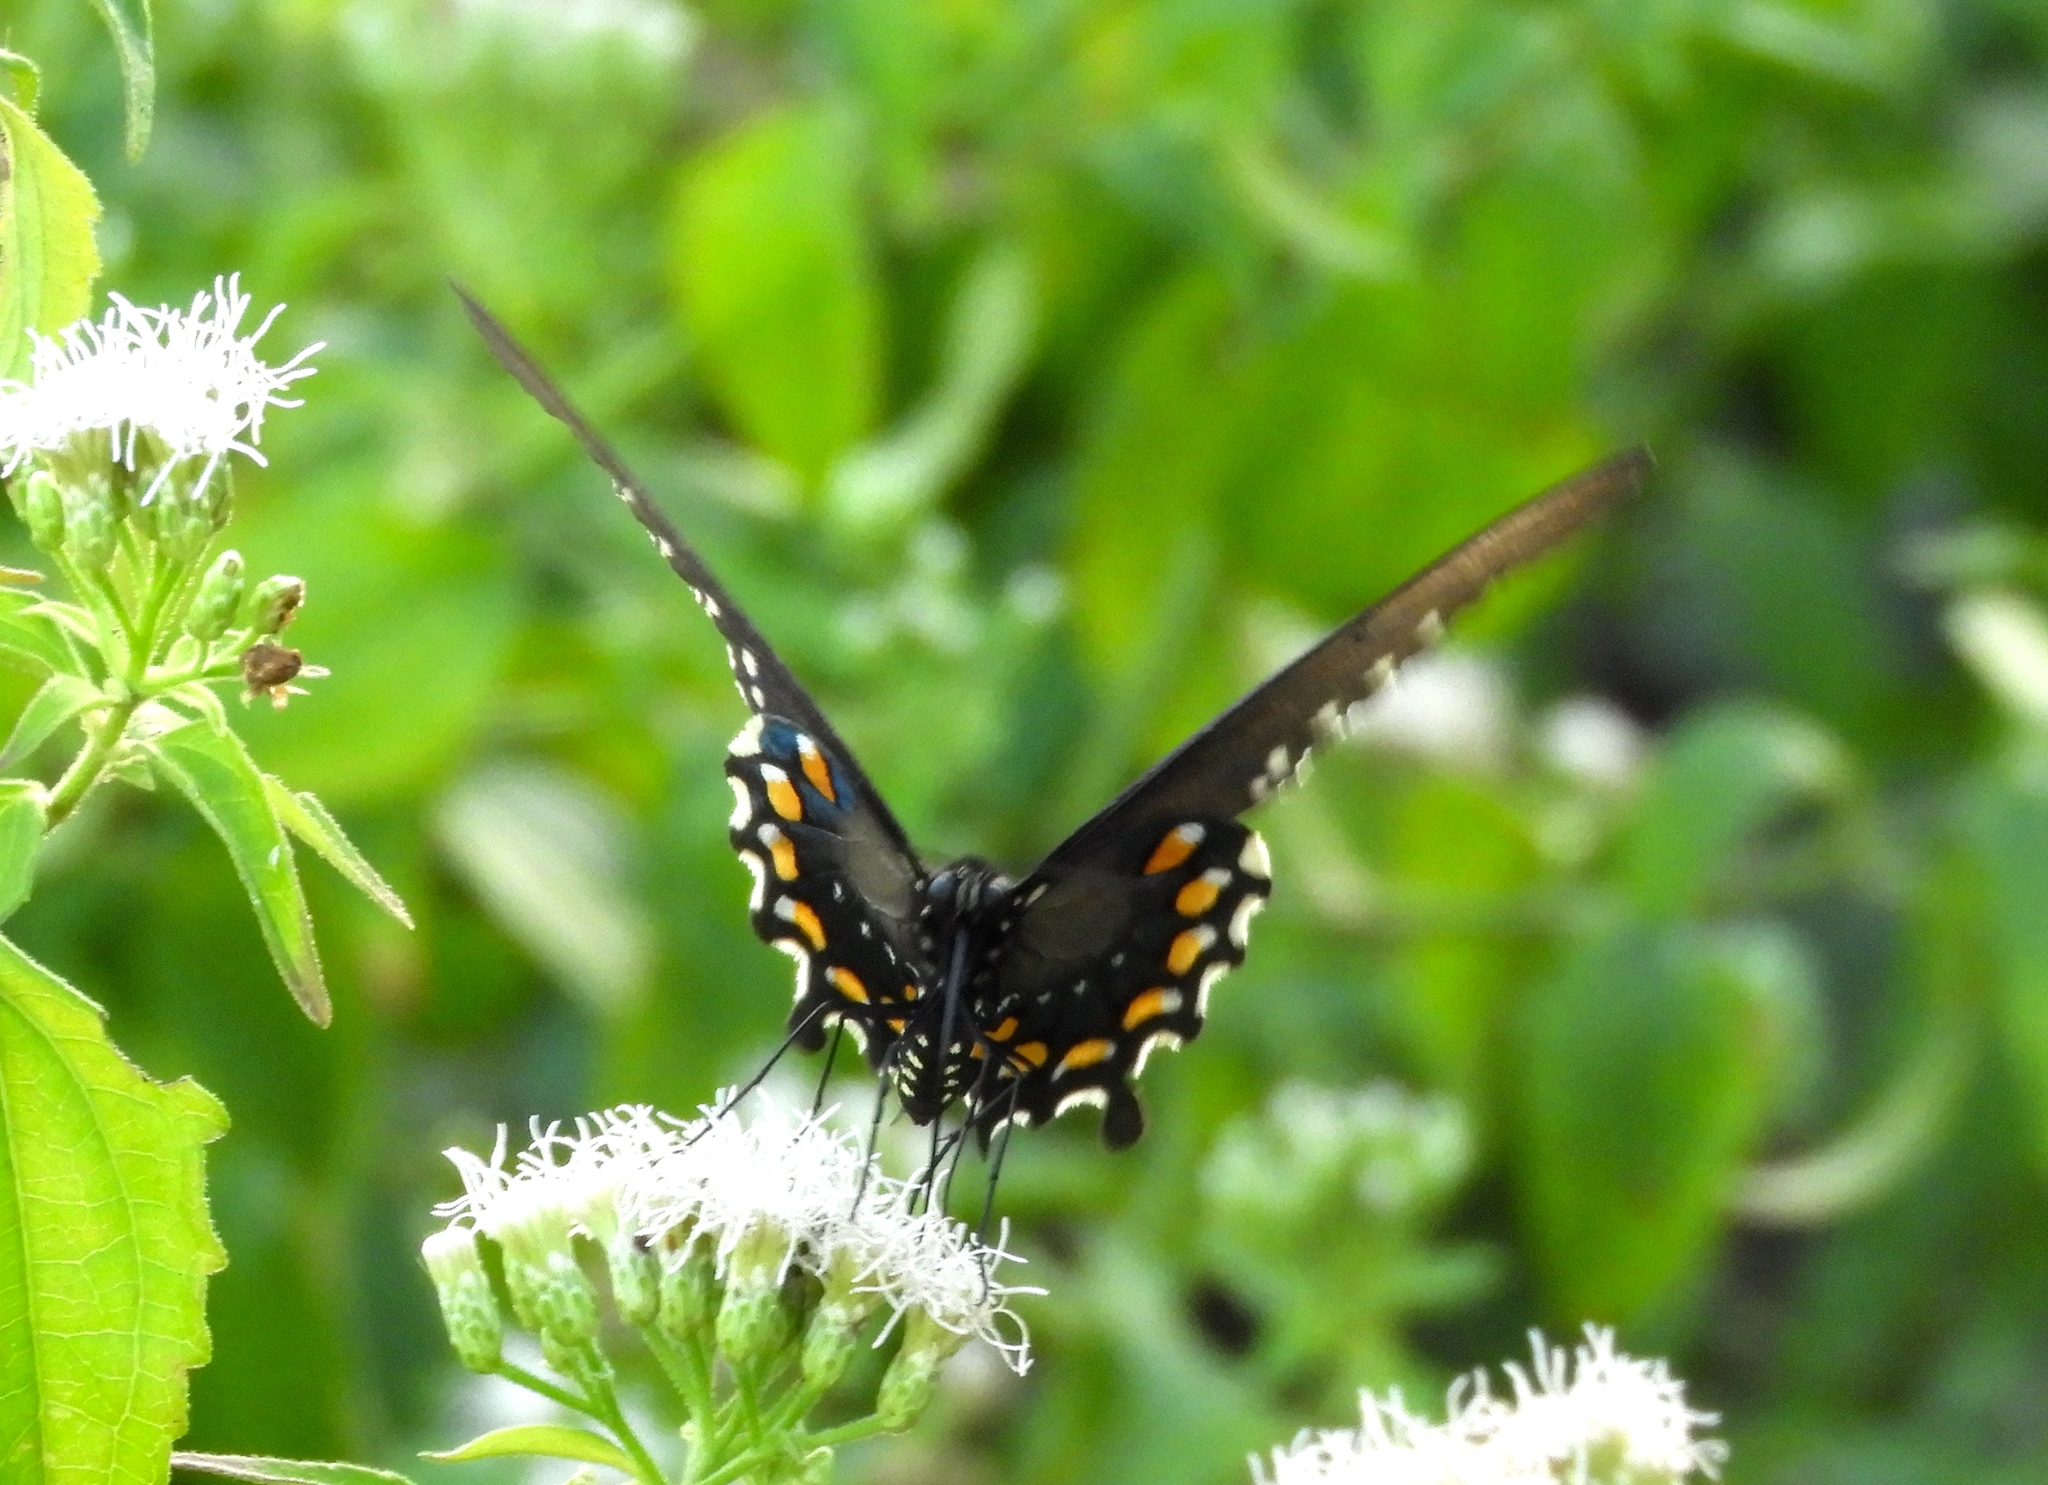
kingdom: Animalia
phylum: Arthropoda
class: Insecta
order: Lepidoptera
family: Papilionidae
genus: Battus
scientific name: Battus philenor
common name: Pipevine swallowtail
